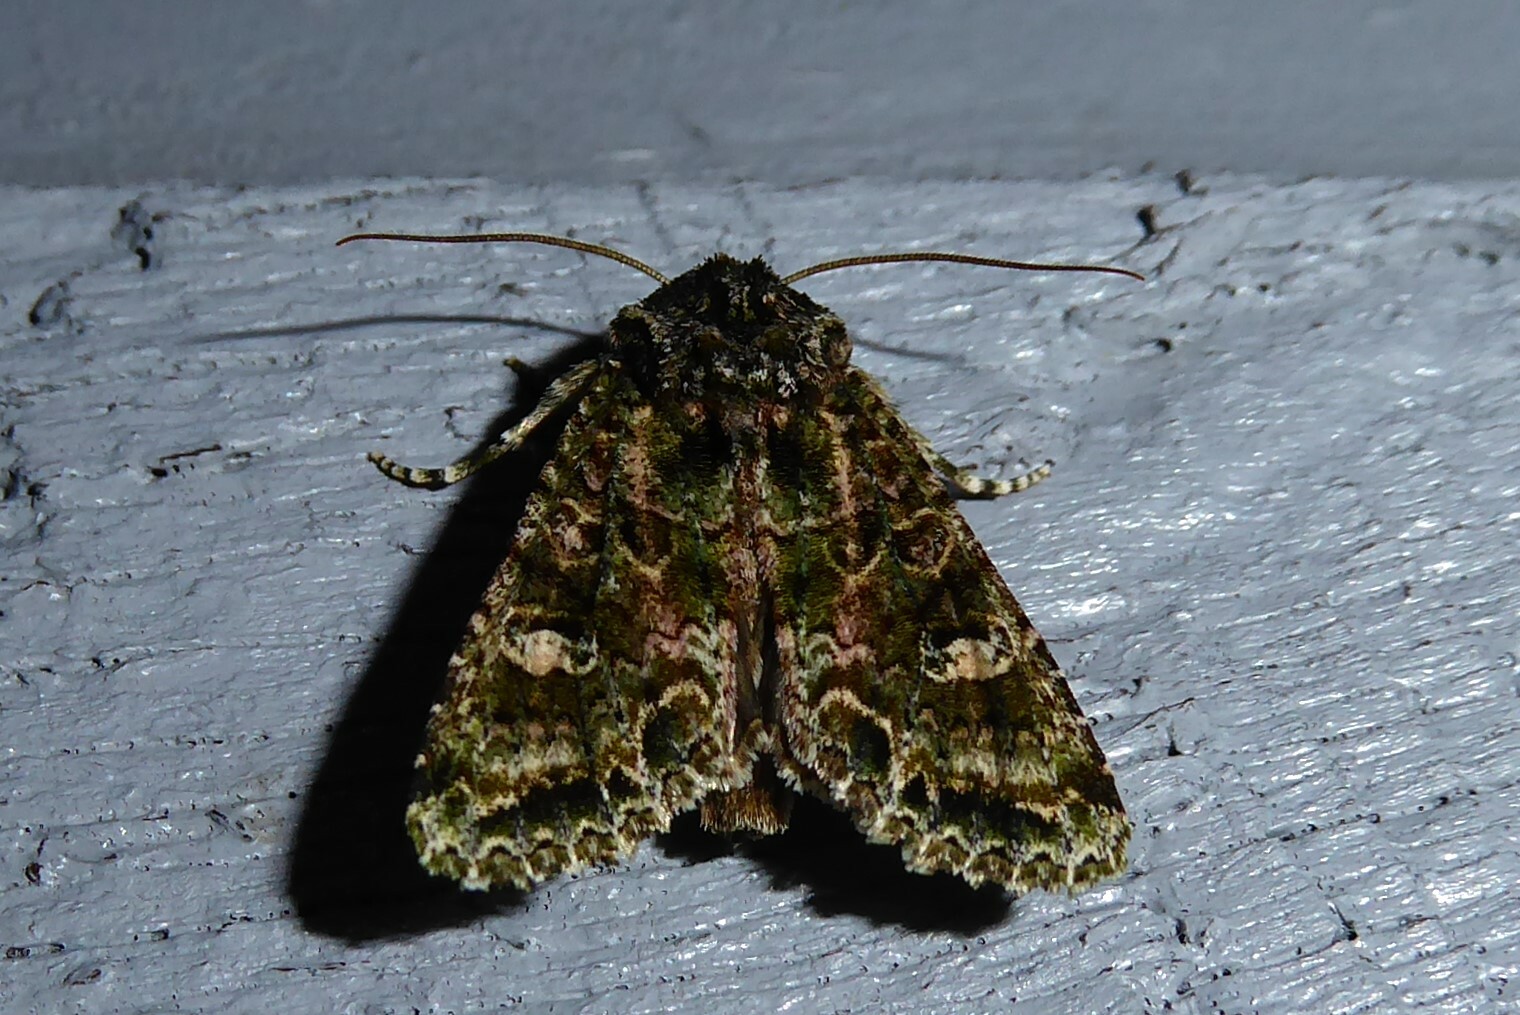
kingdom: Animalia
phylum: Arthropoda
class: Insecta
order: Lepidoptera
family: Noctuidae
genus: Ichneutica
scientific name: Ichneutica
